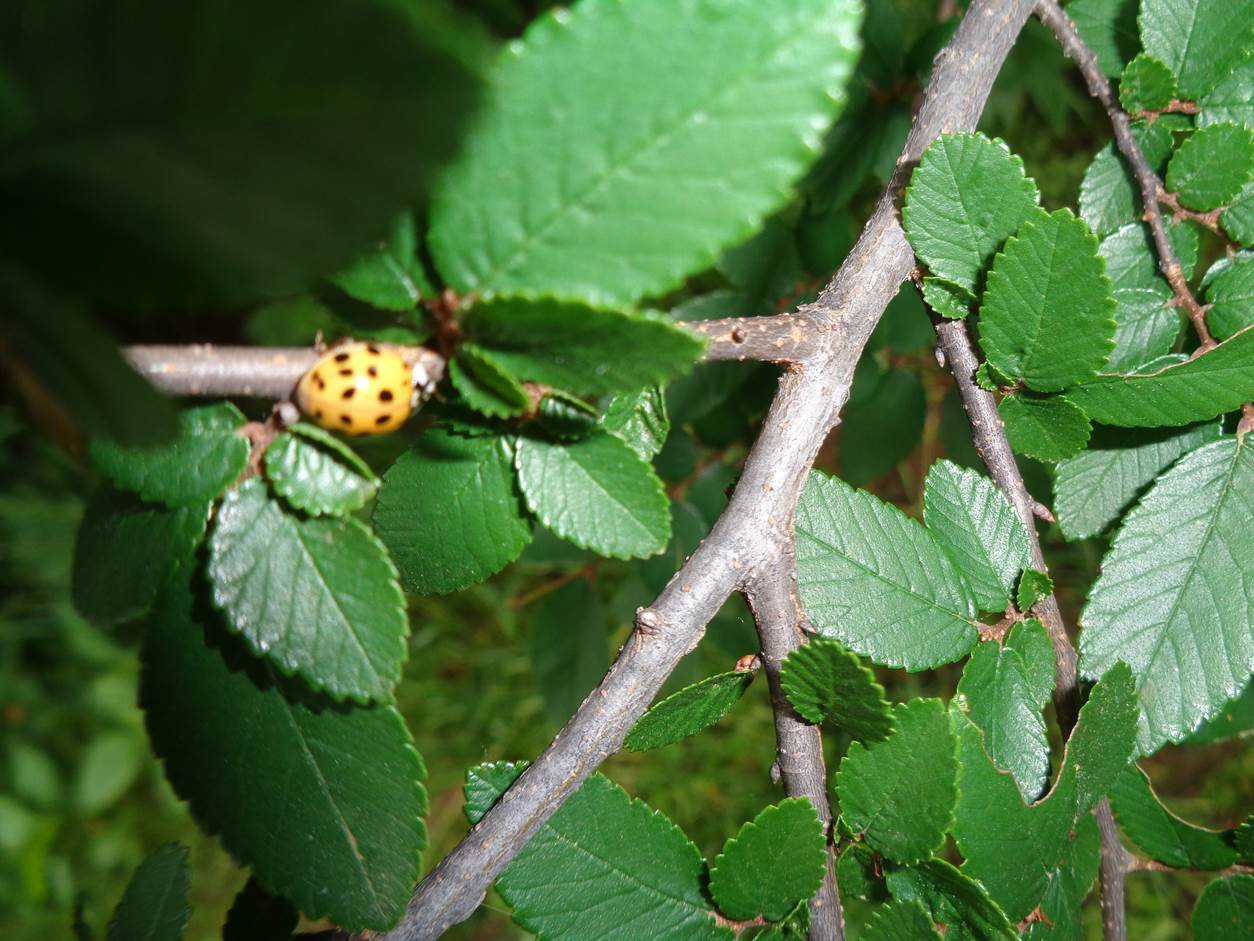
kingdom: Animalia
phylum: Arthropoda
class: Insecta
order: Coleoptera
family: Coccinellidae
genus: Harmonia
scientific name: Harmonia axyridis
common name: Harlequin ladybird
